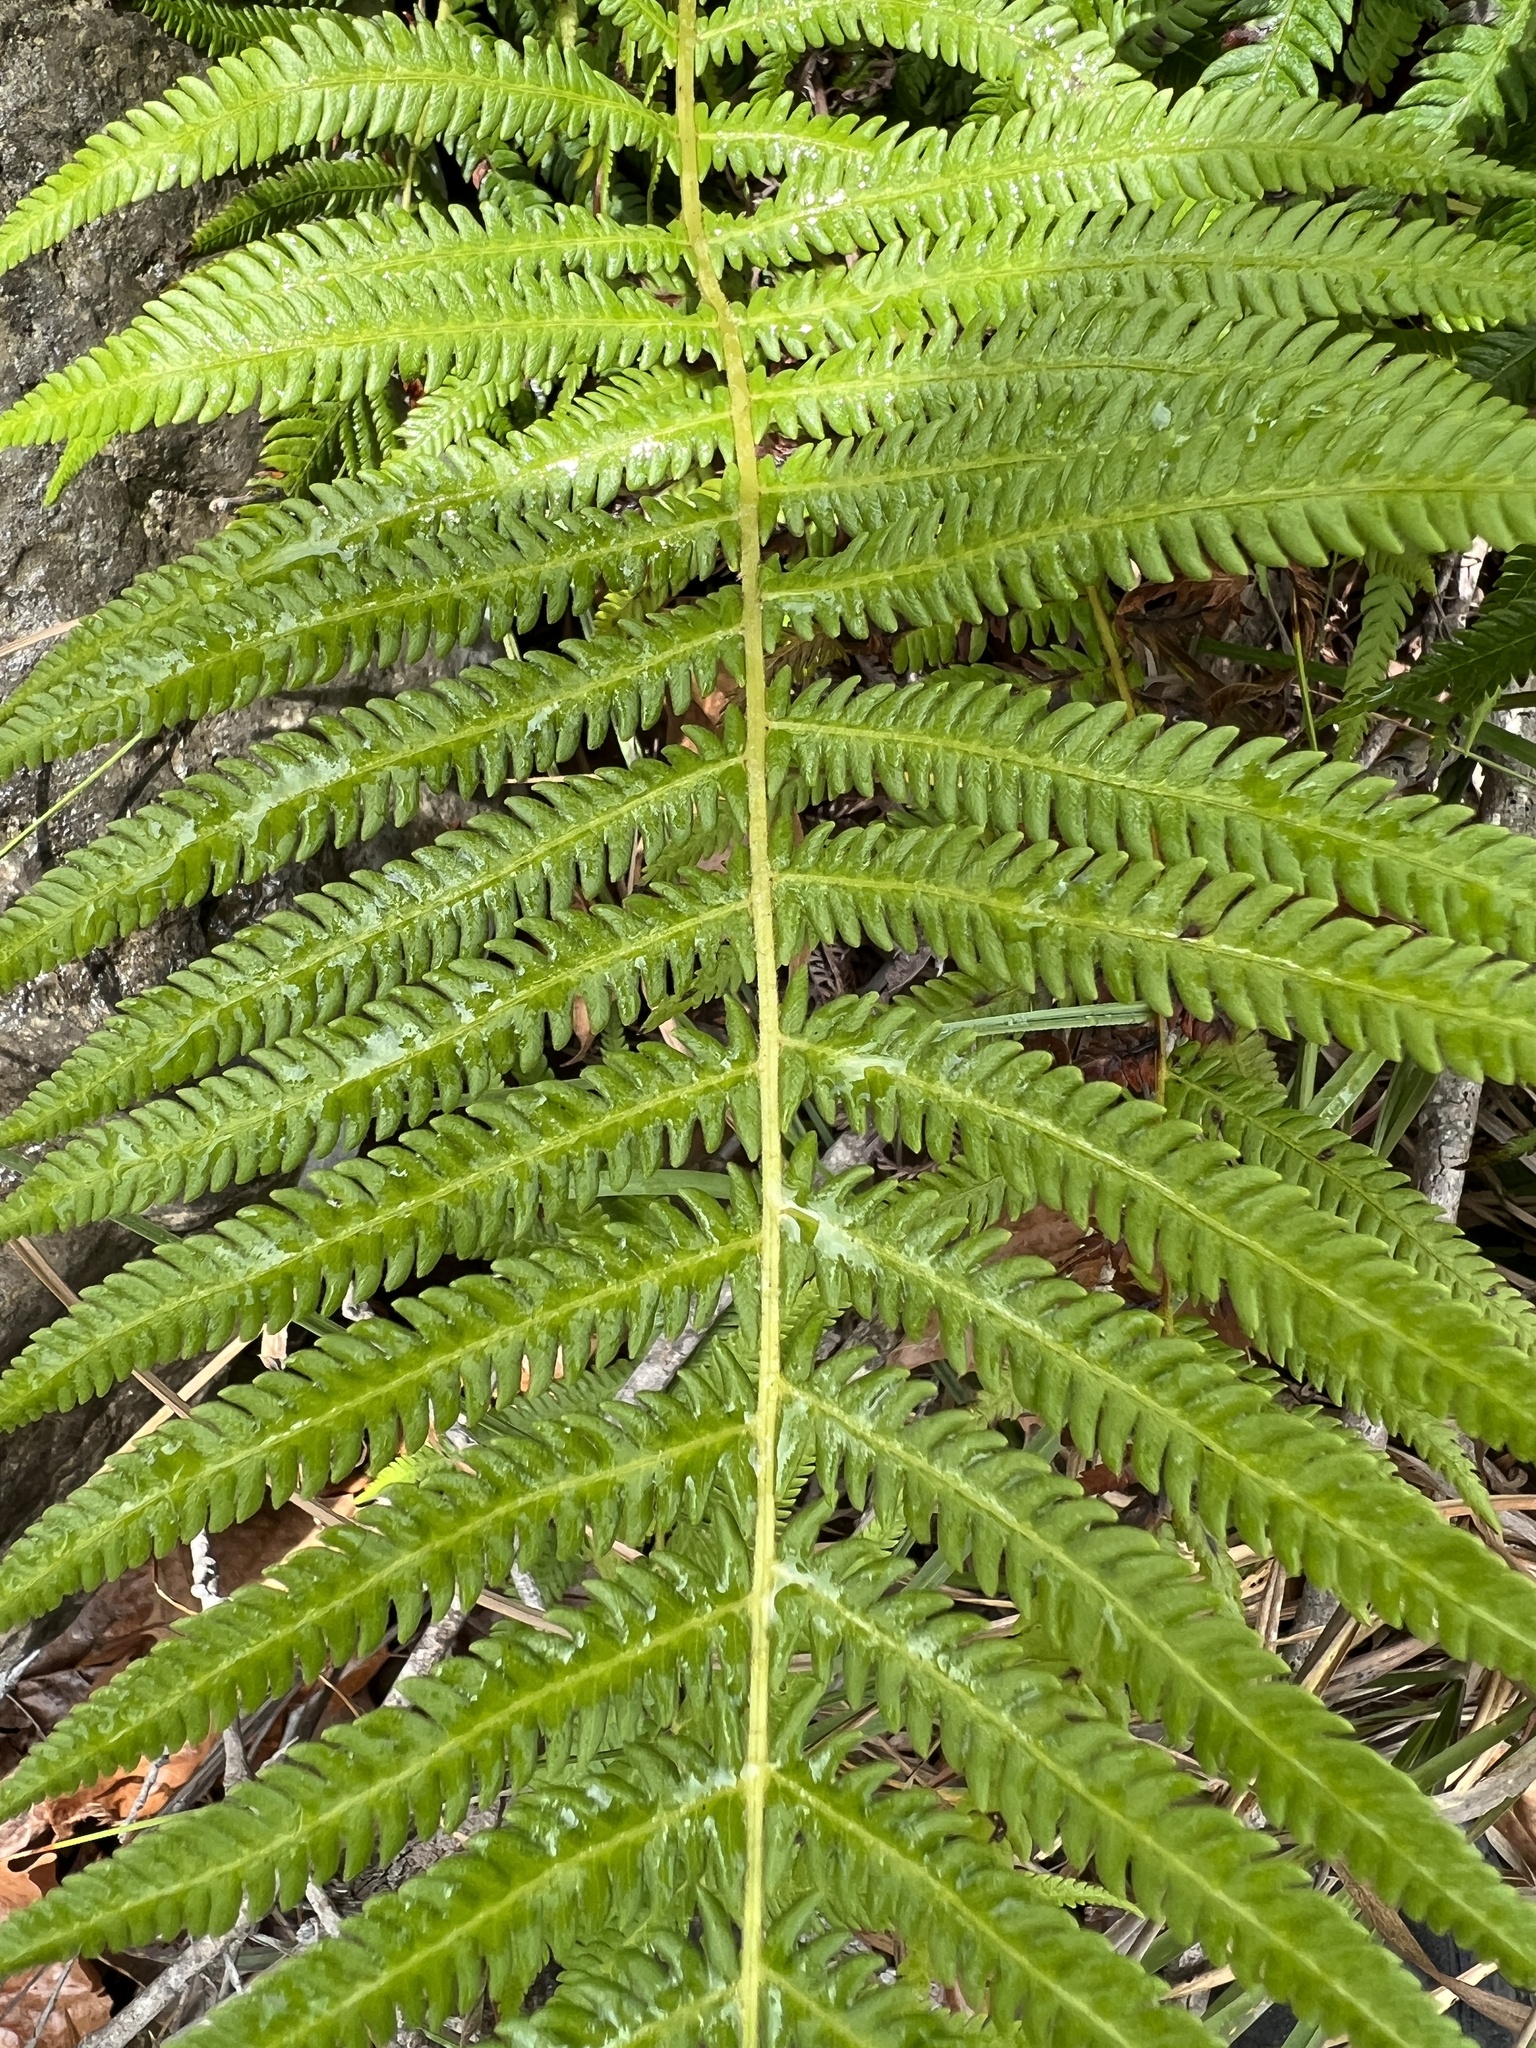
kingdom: Plantae
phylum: Tracheophyta
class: Polypodiopsida
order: Polypodiales
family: Thelypteridaceae
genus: Pelazoneuron
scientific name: Pelazoneuron ovatum
